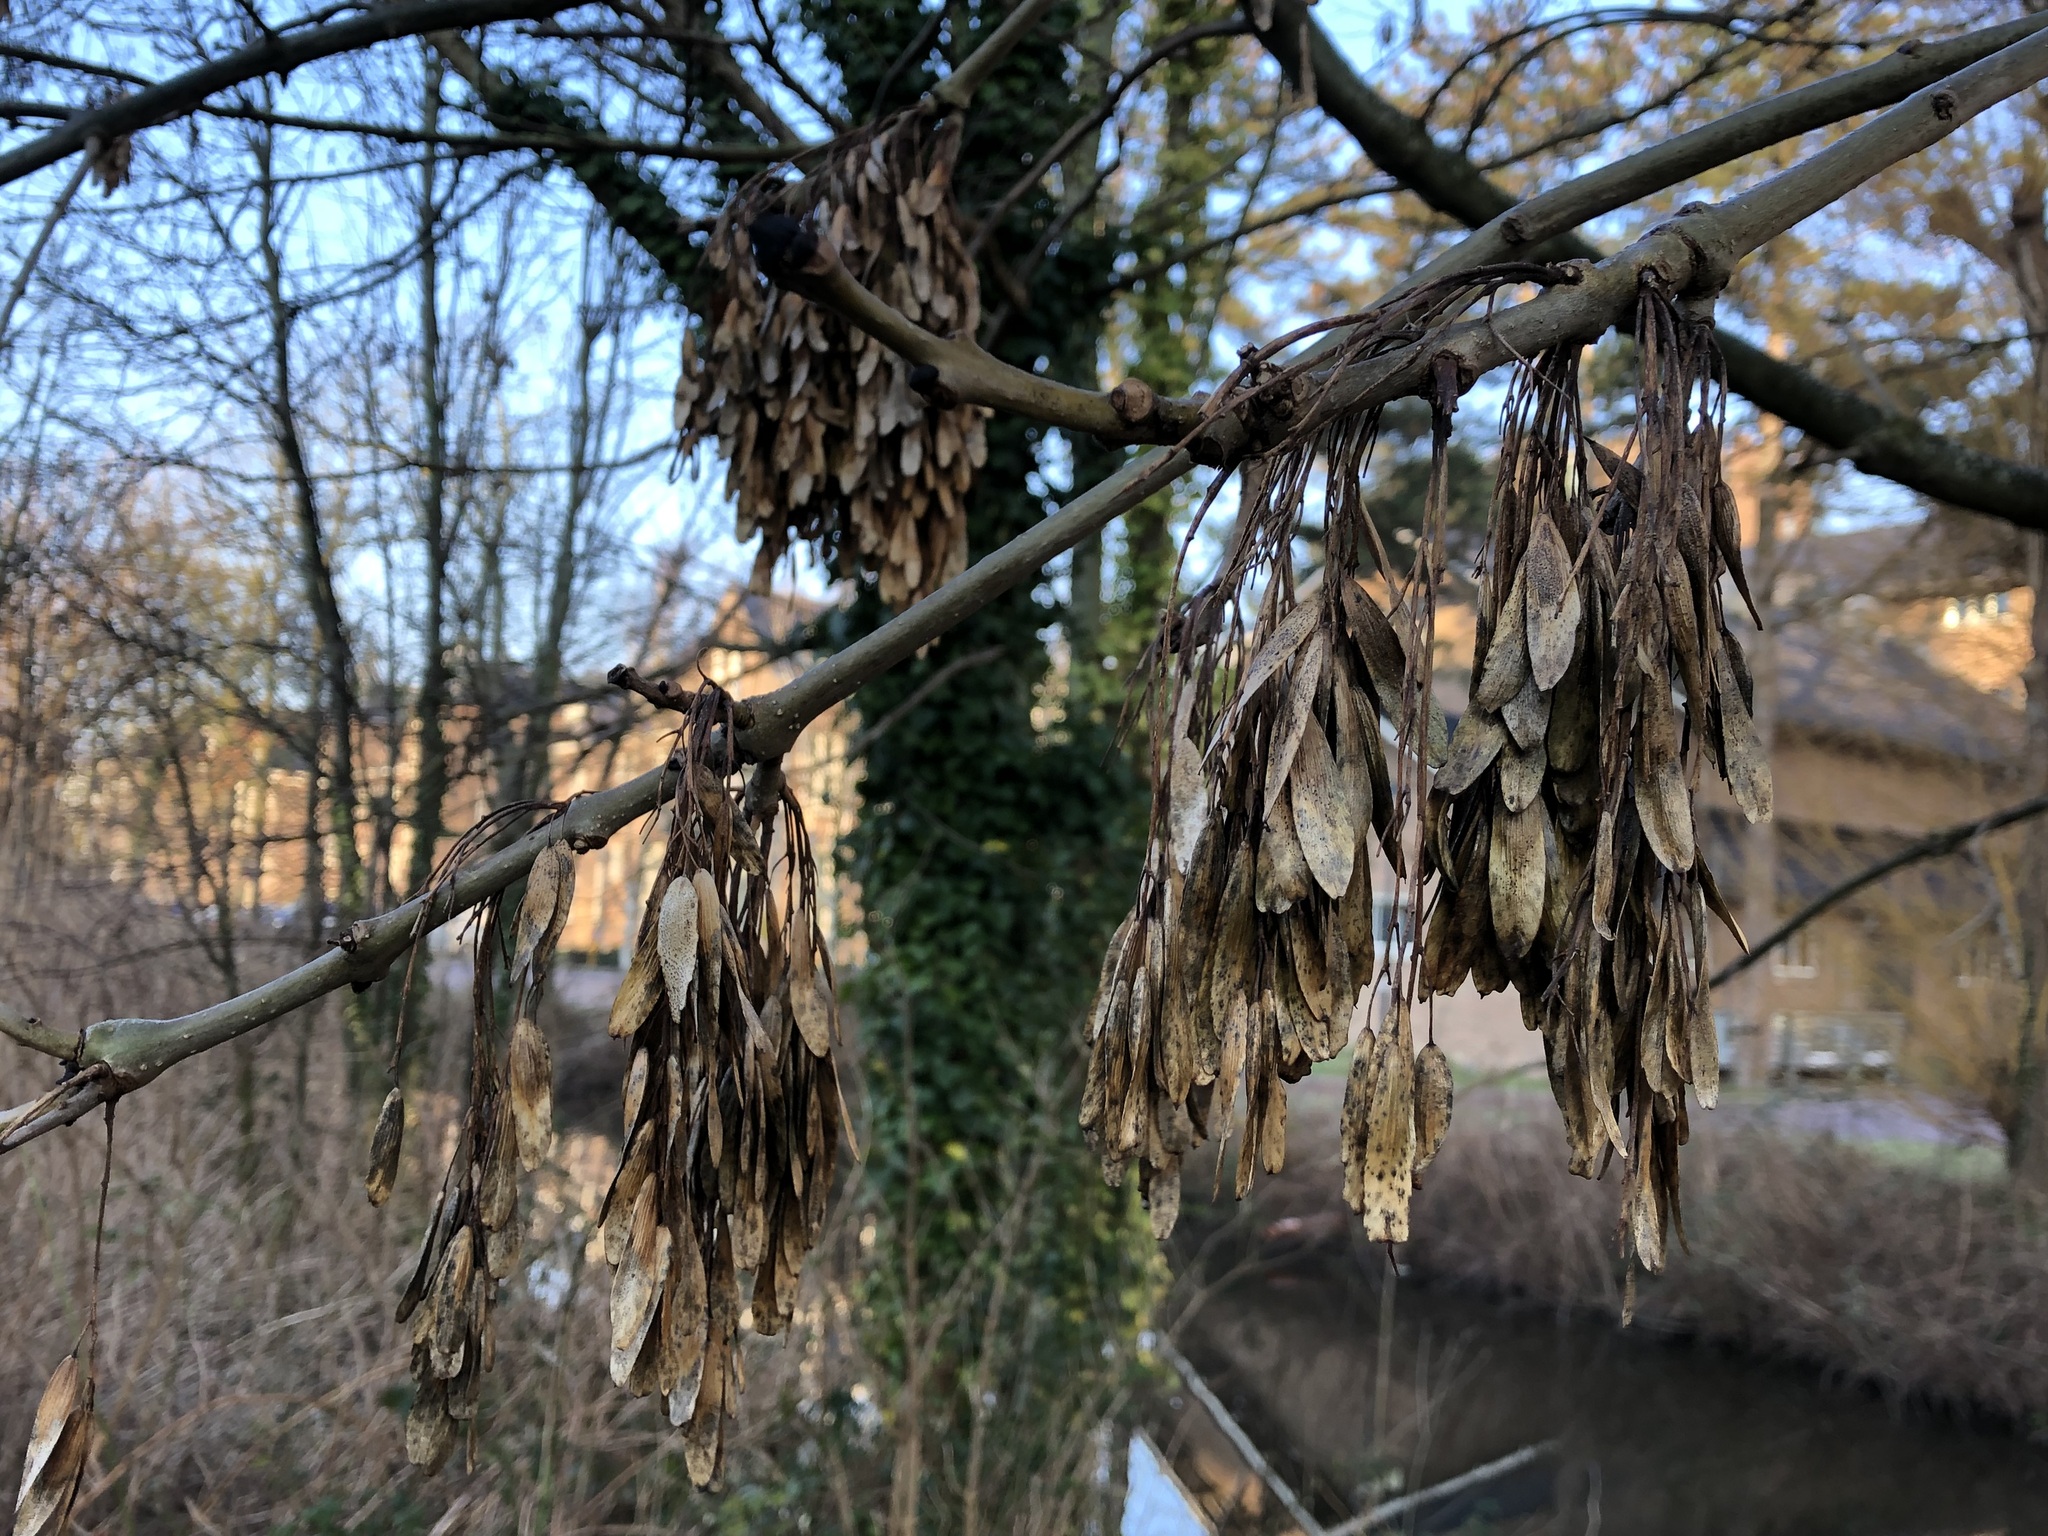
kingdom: Plantae
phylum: Tracheophyta
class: Magnoliopsida
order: Lamiales
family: Oleaceae
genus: Fraxinus
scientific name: Fraxinus excelsior
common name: European ash
